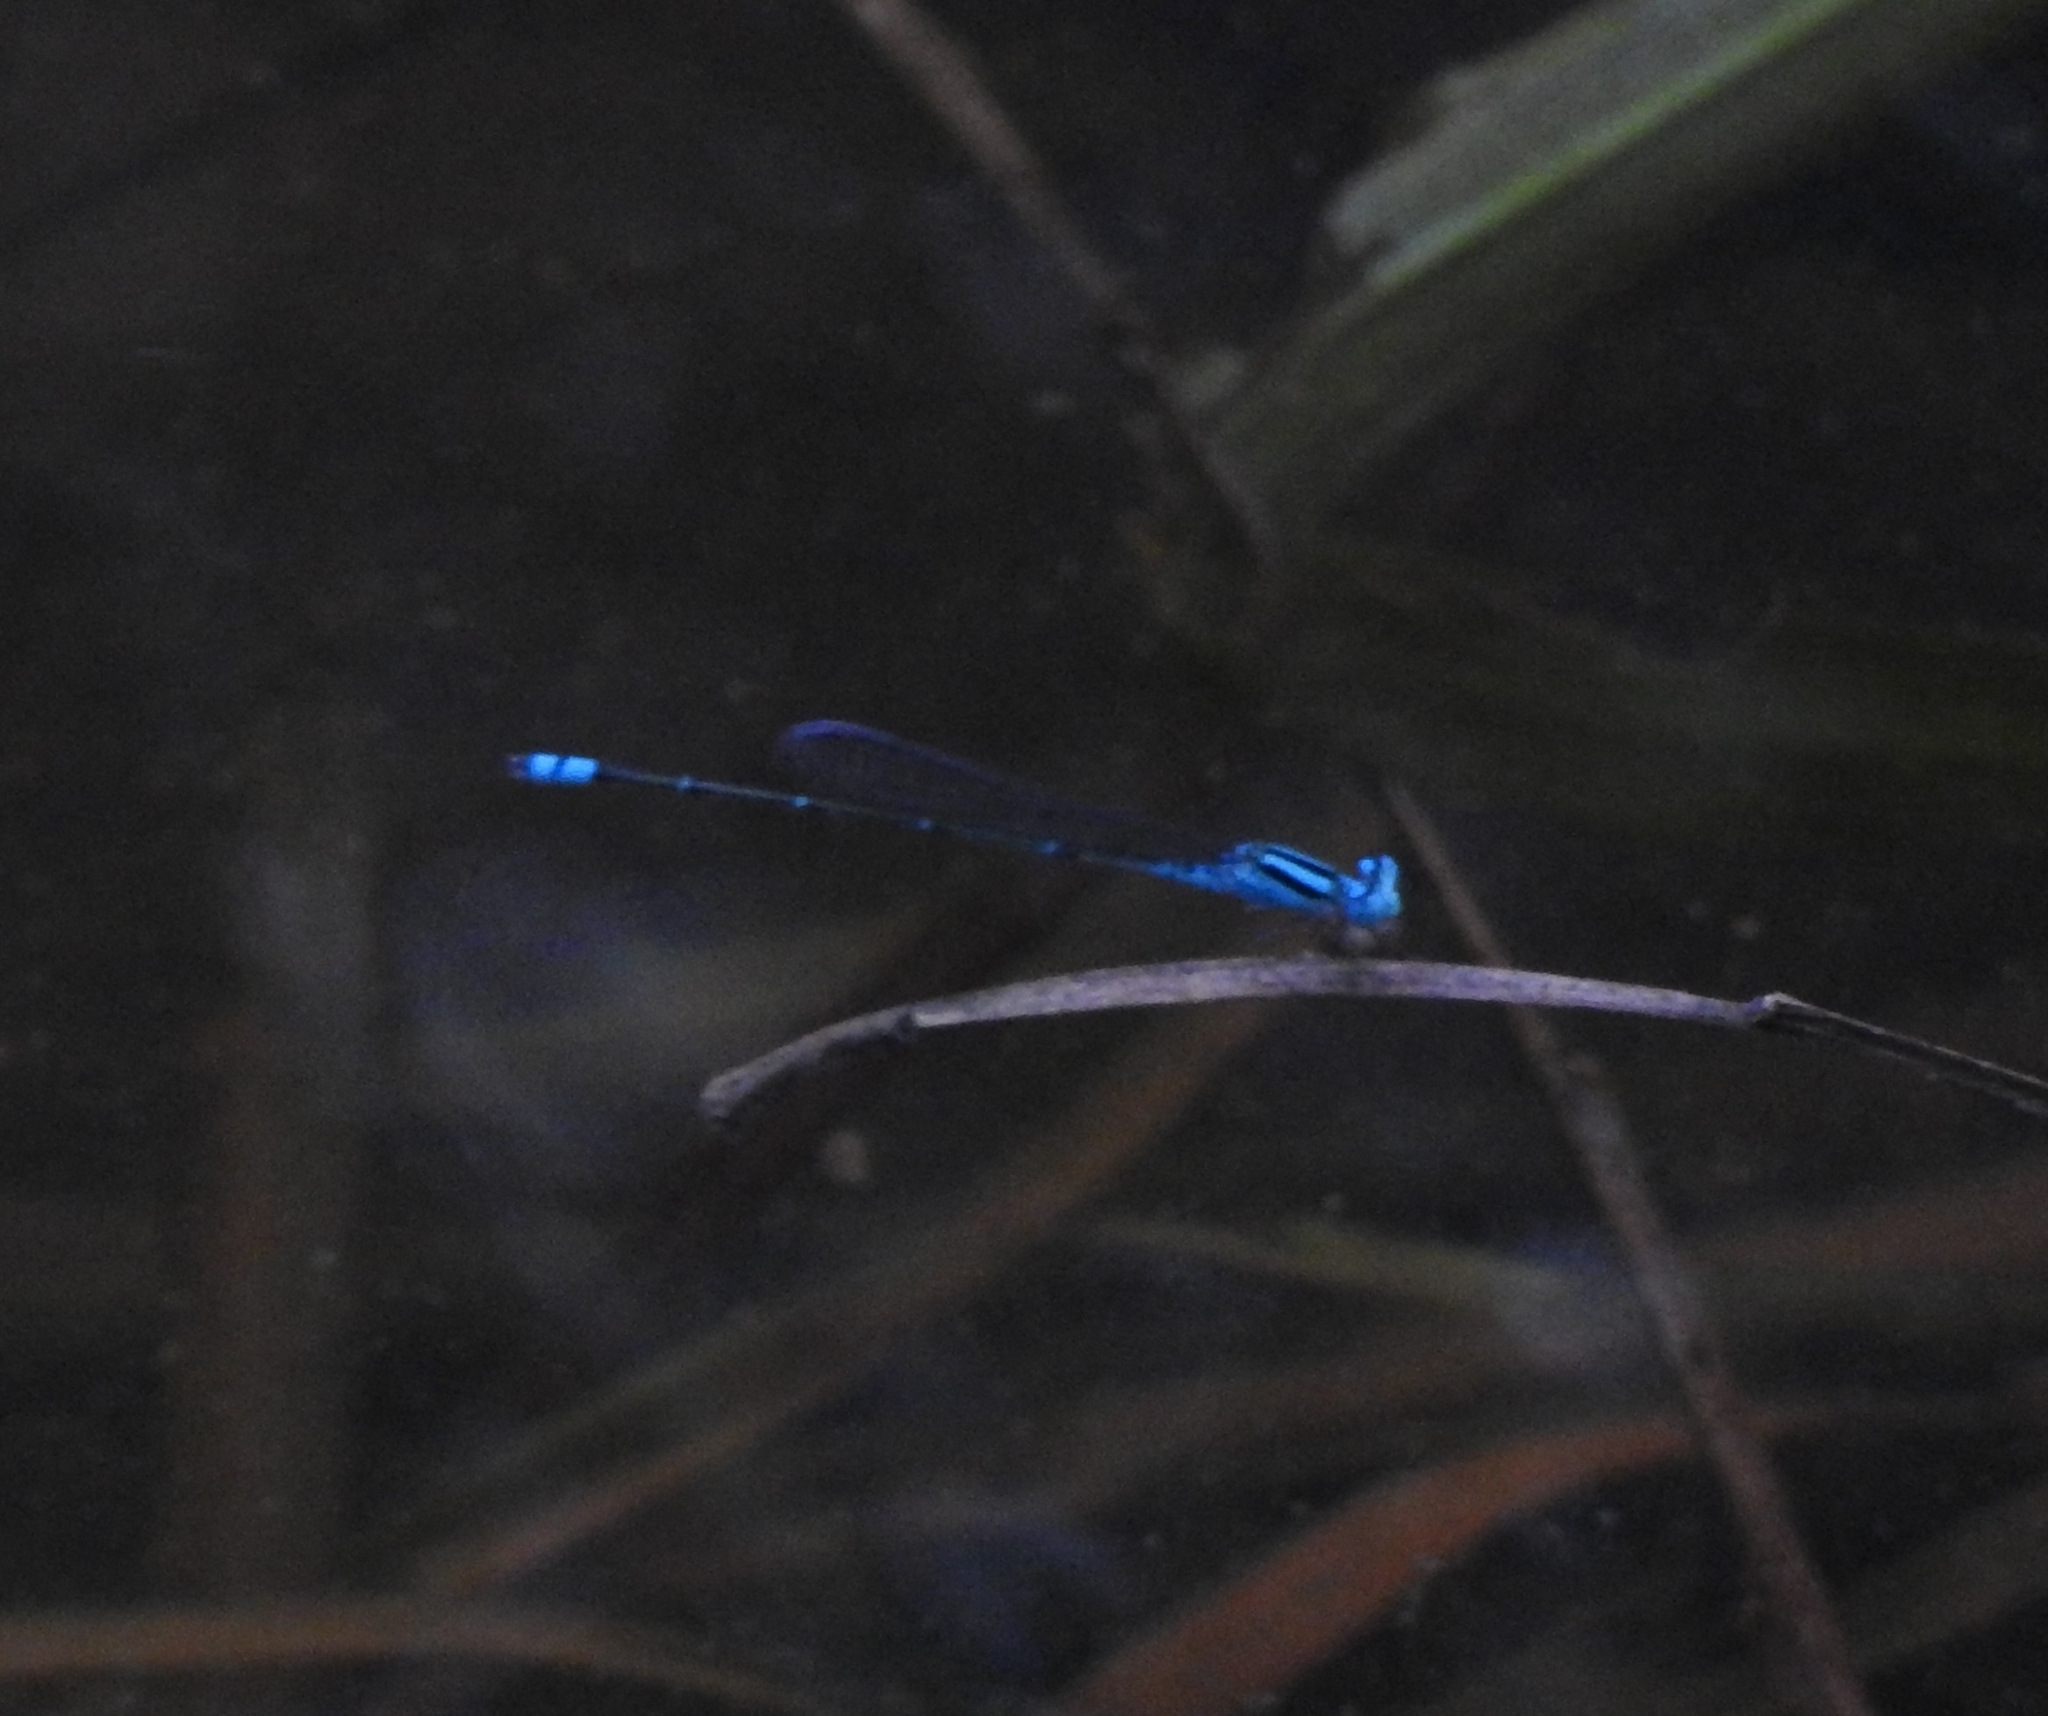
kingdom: Animalia
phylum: Arthropoda
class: Insecta
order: Odonata
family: Coenagrionidae
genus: Pseudagrion
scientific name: Pseudagrion microcephalum
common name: Blue riverdamsel
